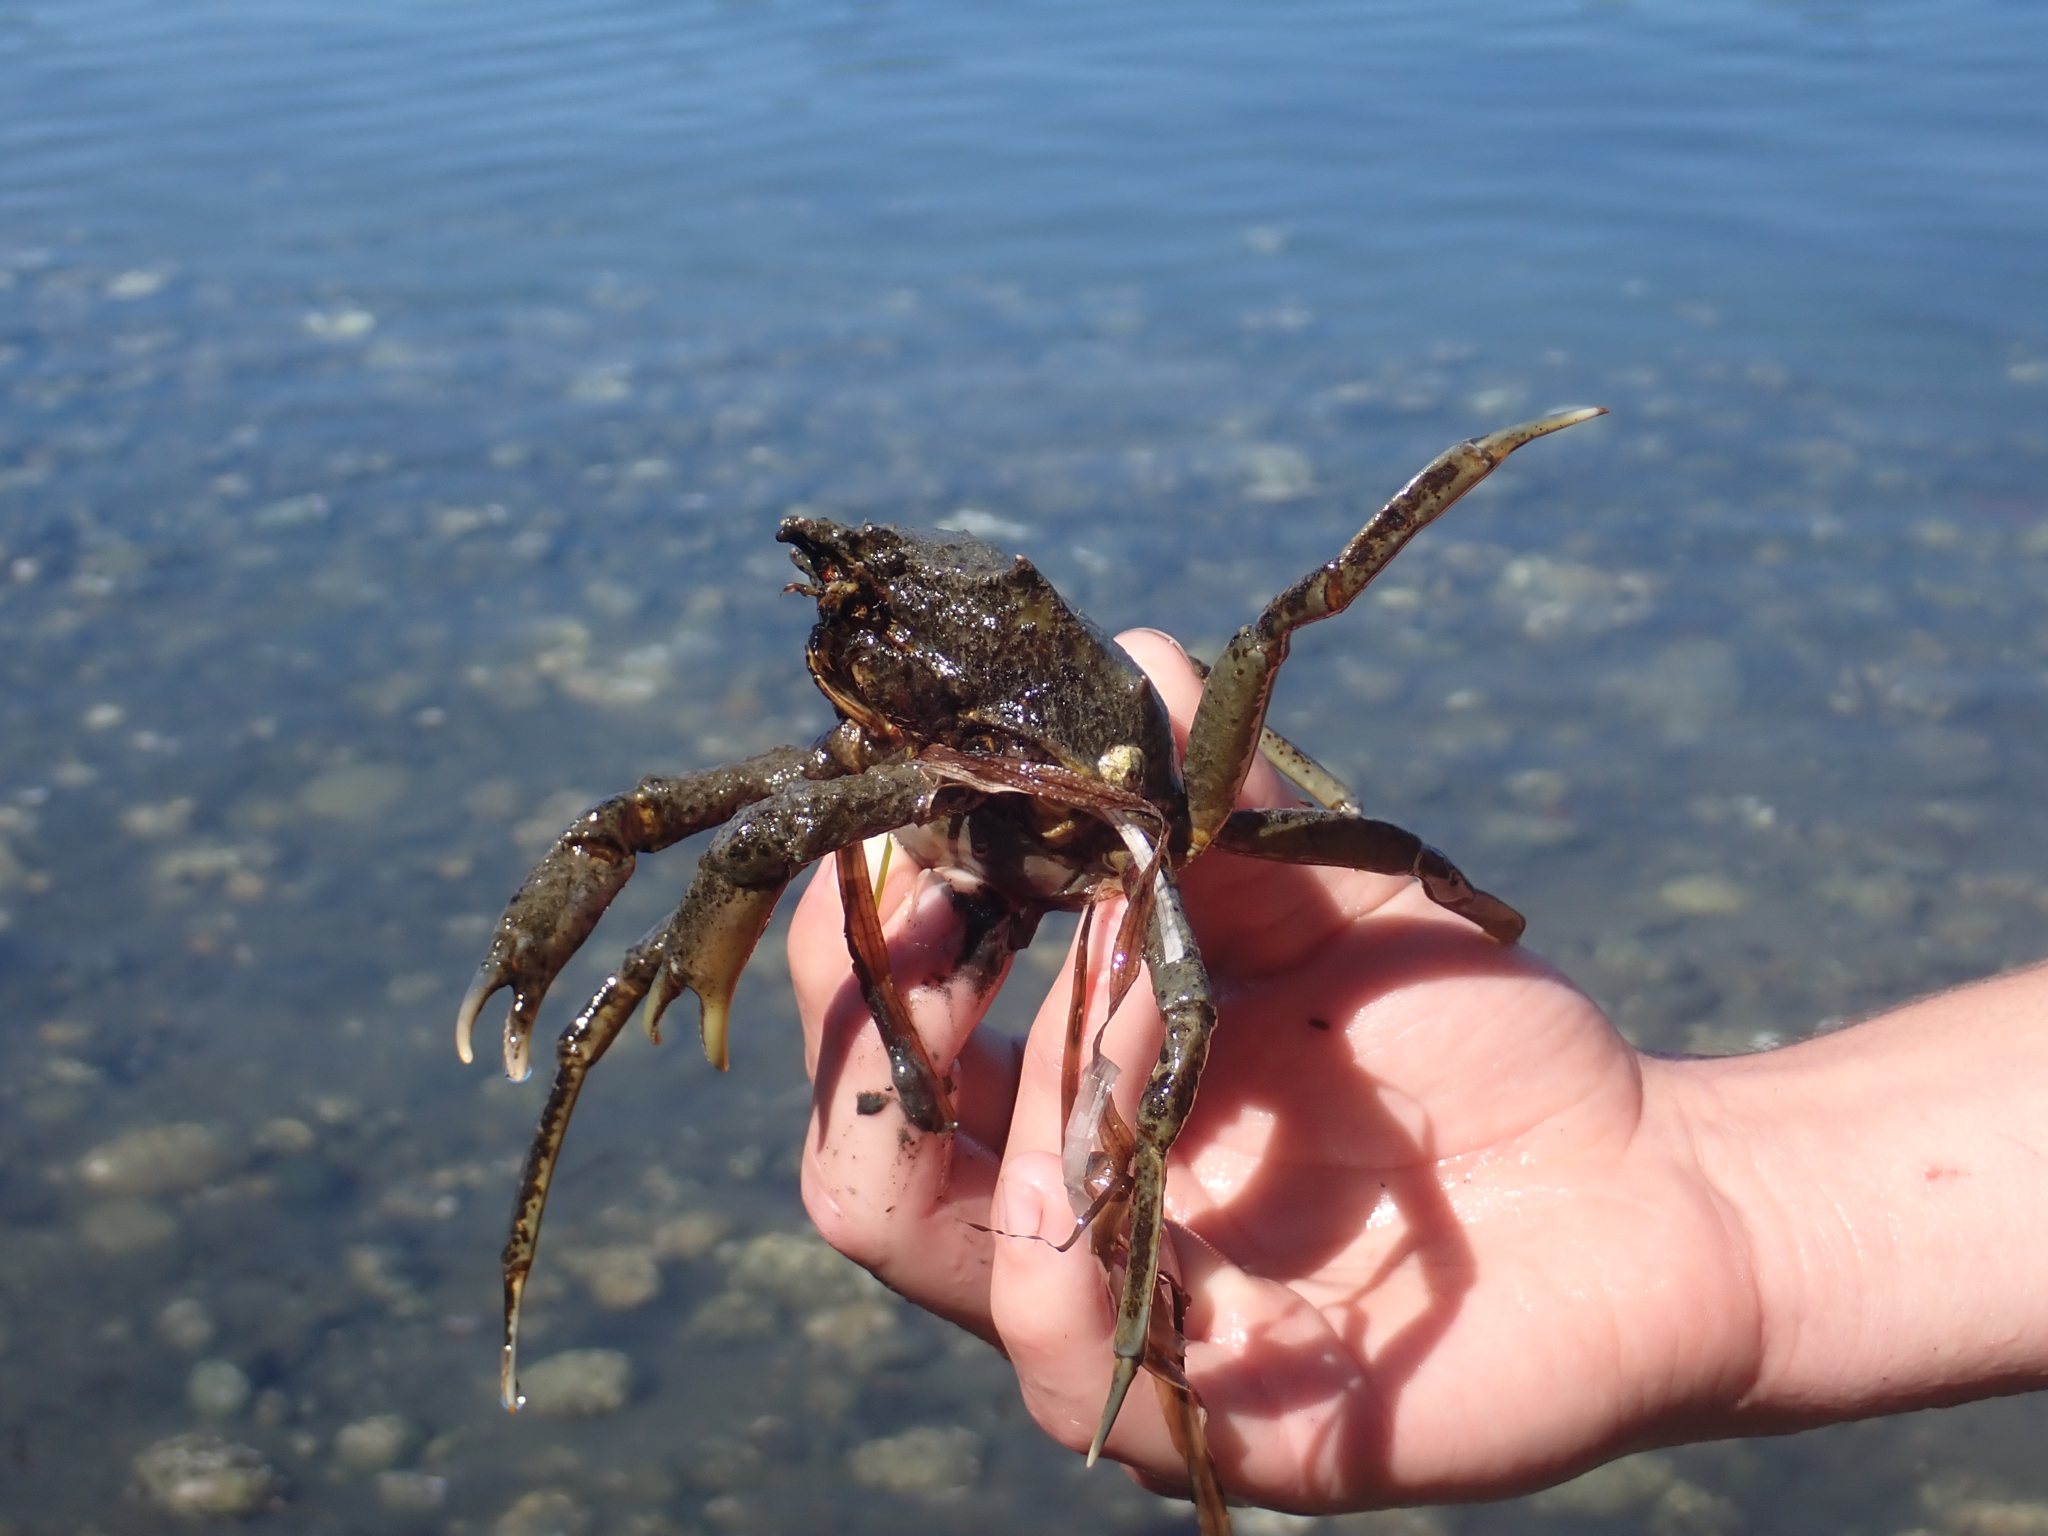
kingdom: Animalia
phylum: Arthropoda
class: Malacostraca
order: Decapoda
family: Epialtidae
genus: Pugettia
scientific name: Pugettia producta
